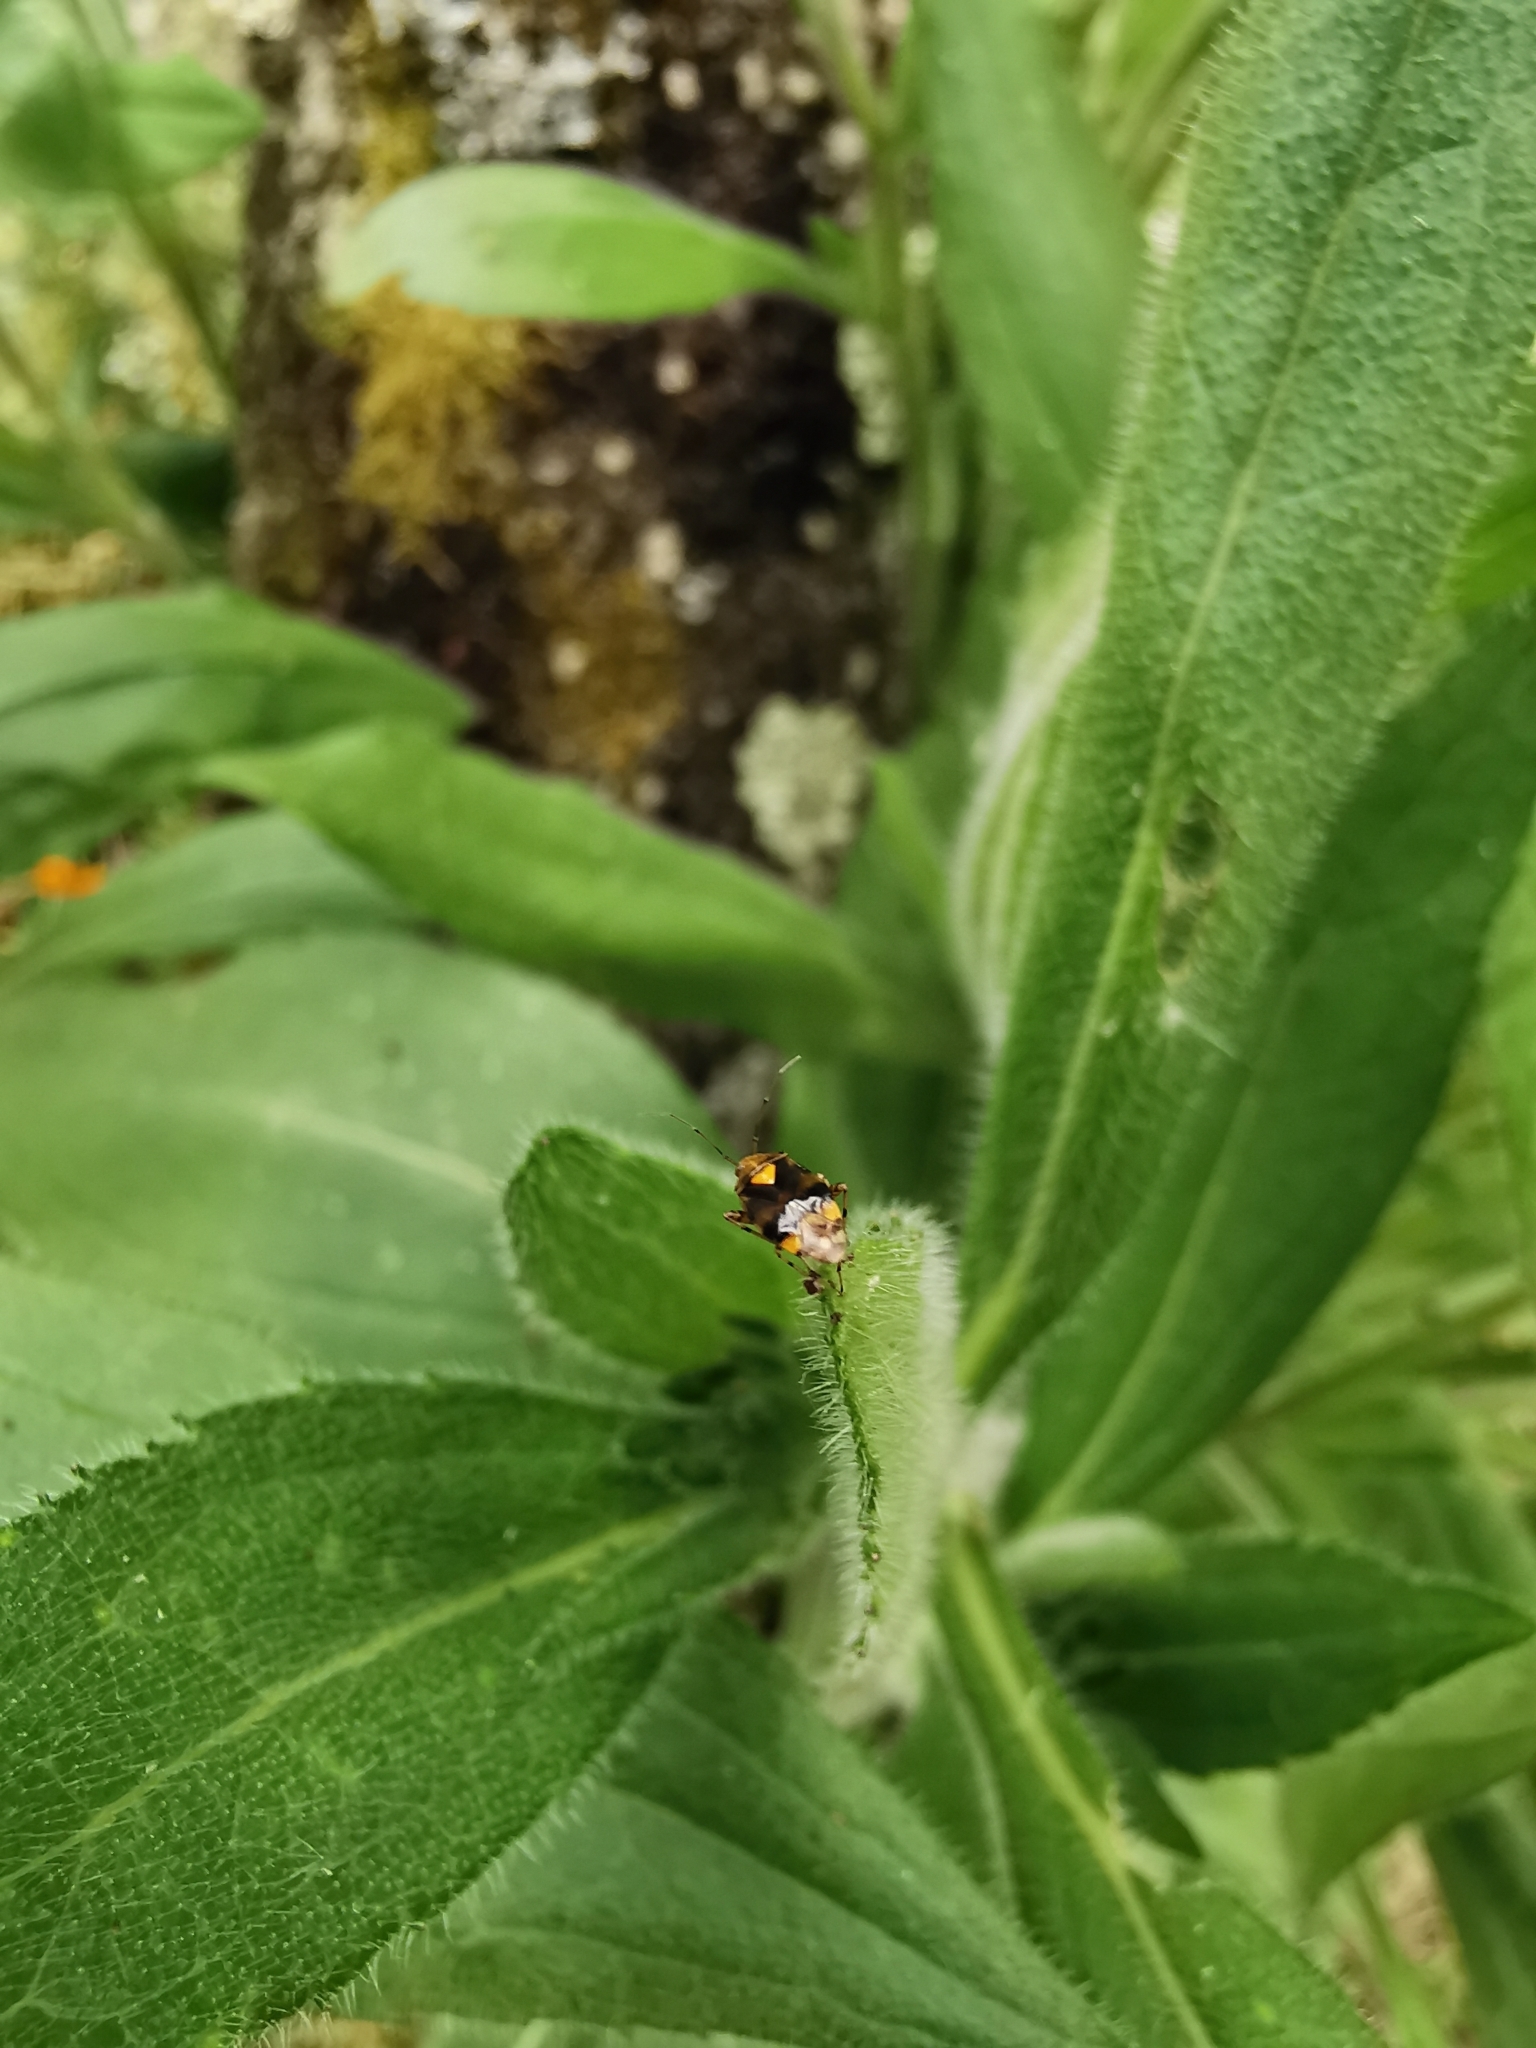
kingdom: Animalia
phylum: Arthropoda
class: Insecta
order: Hemiptera
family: Miridae
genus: Liocoris
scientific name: Liocoris tripustulatus
